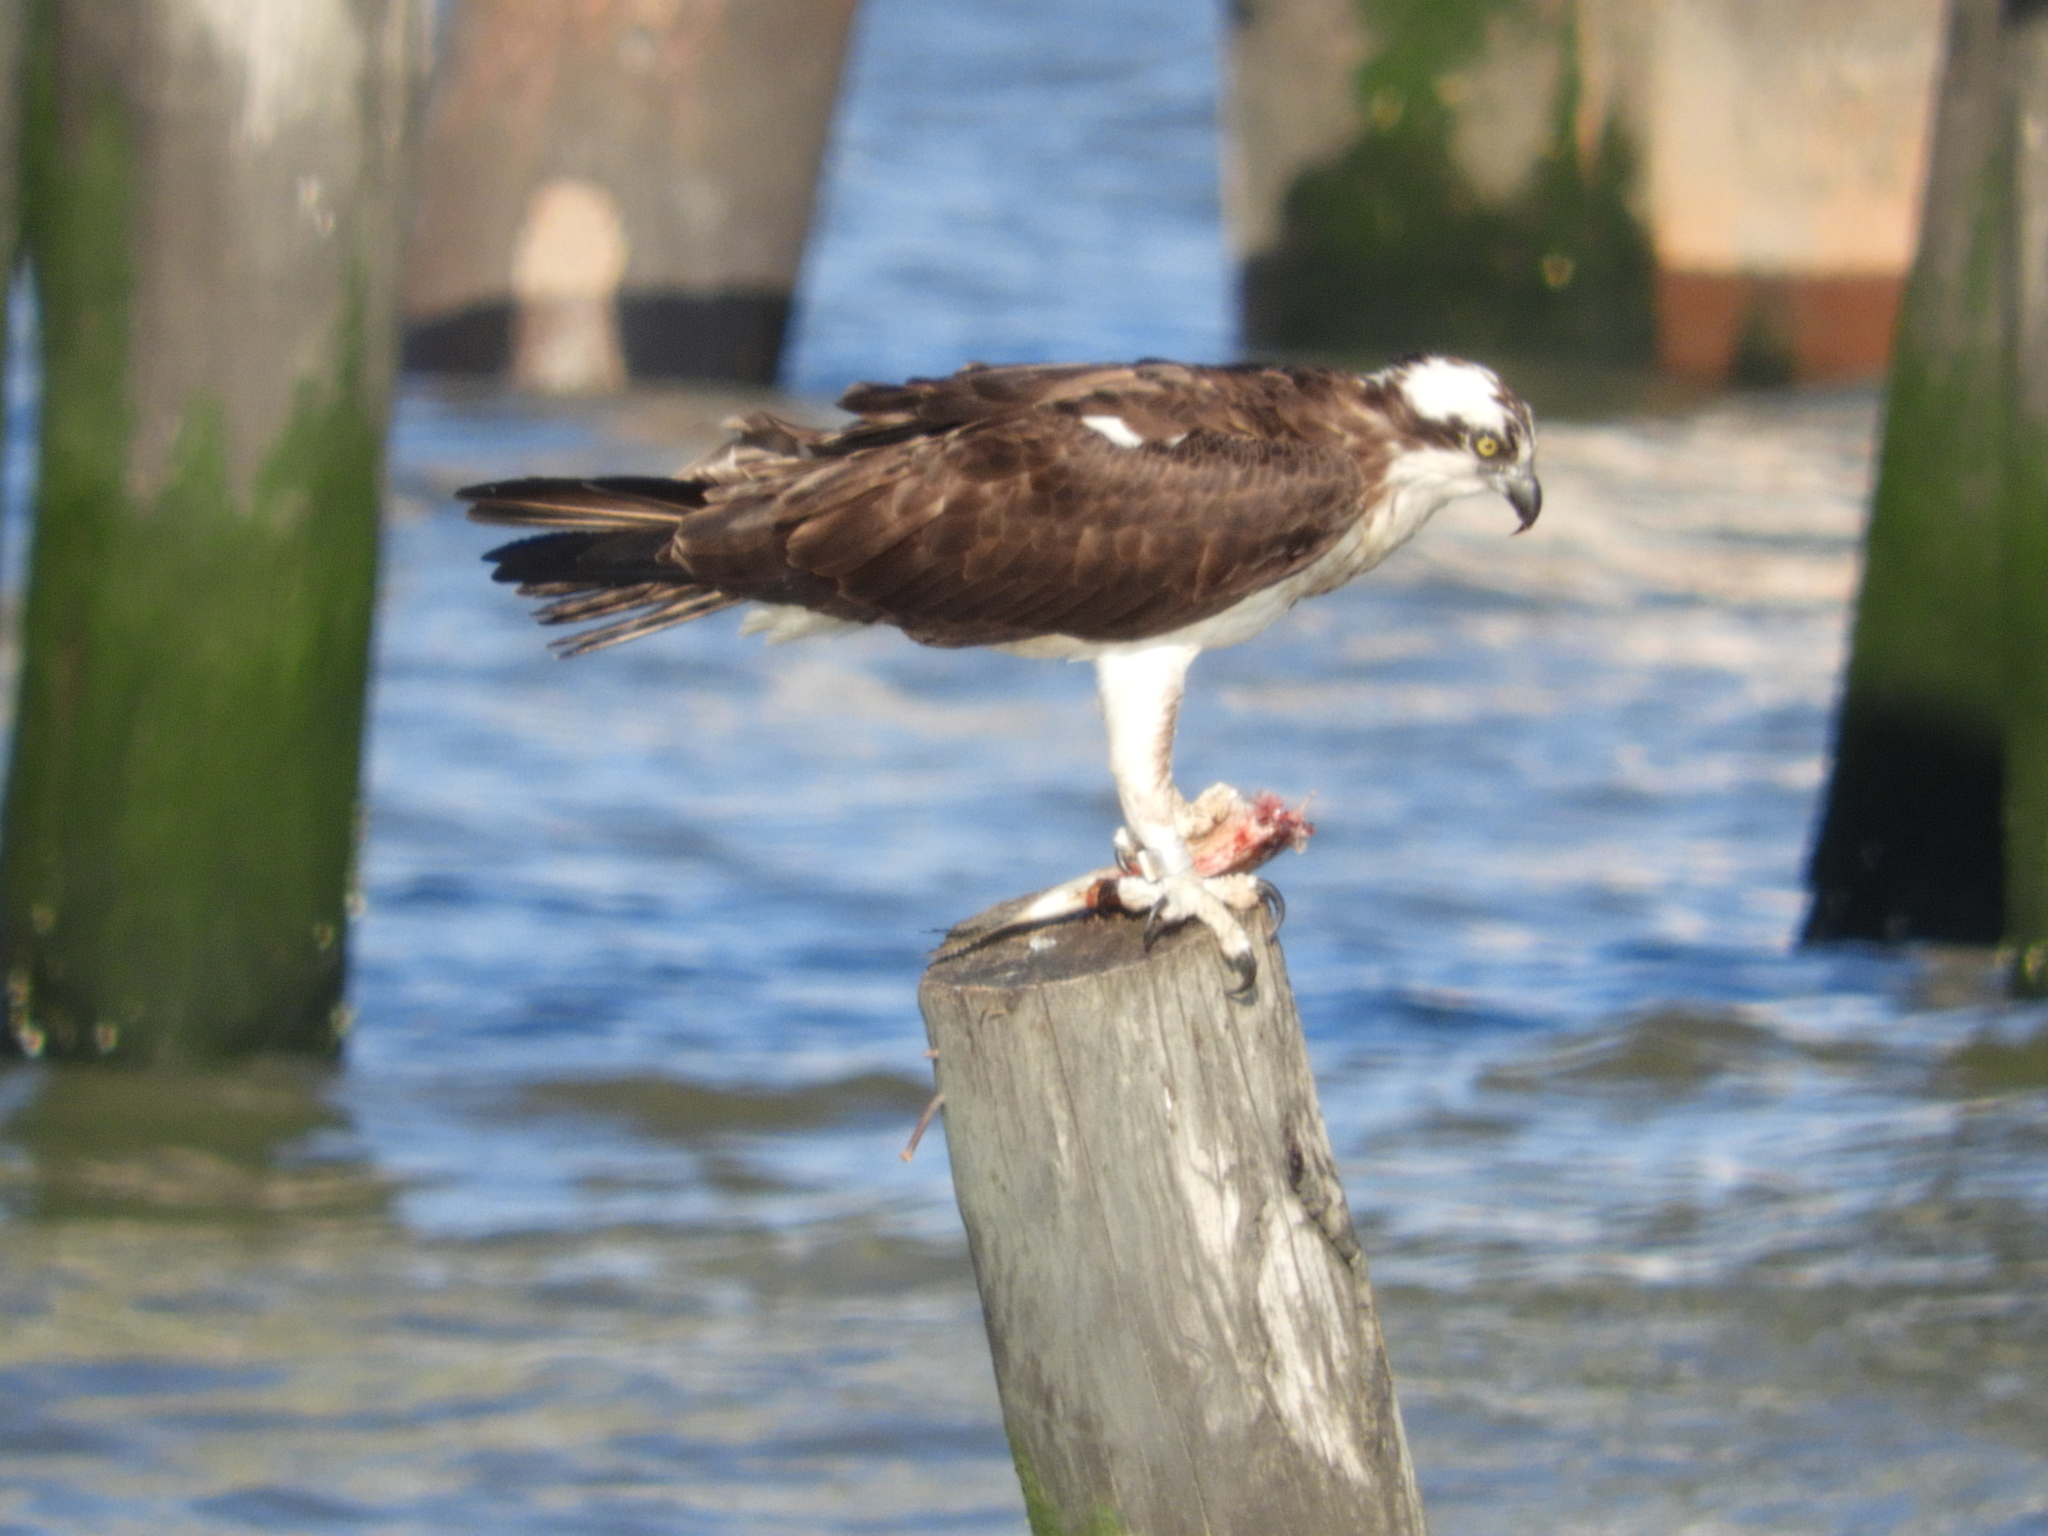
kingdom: Animalia
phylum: Chordata
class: Aves
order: Accipitriformes
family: Pandionidae
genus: Pandion
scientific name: Pandion haliaetus
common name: Osprey
